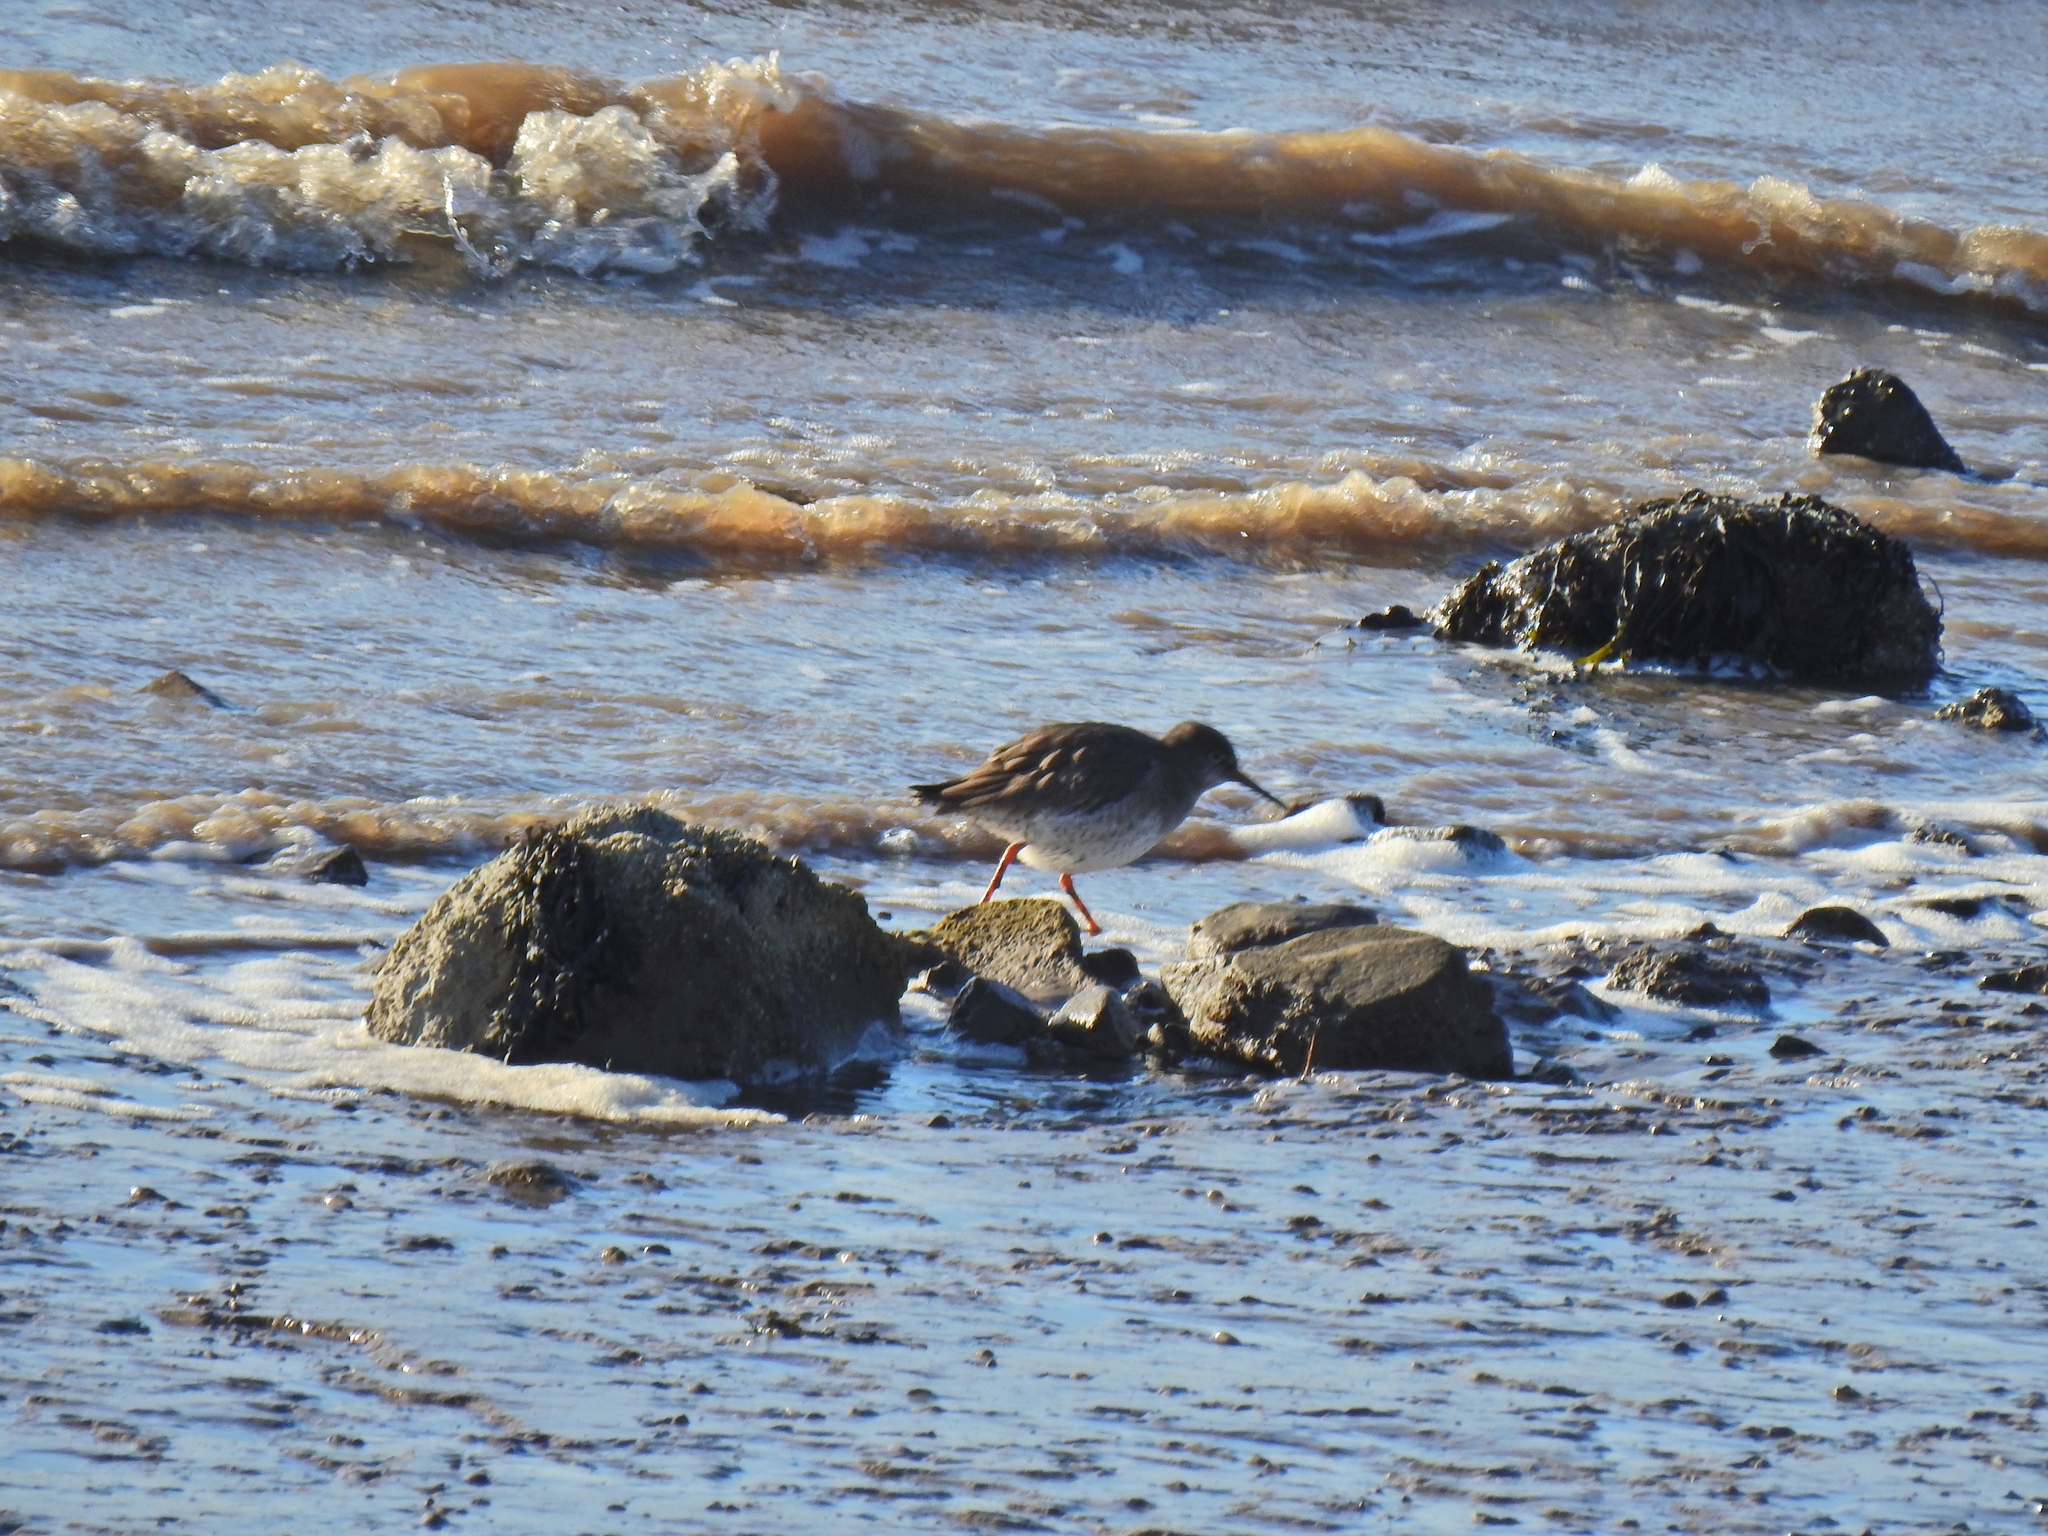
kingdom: Animalia
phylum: Chordata
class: Aves
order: Charadriiformes
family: Scolopacidae
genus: Tringa
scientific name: Tringa totanus
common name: Common redshank
